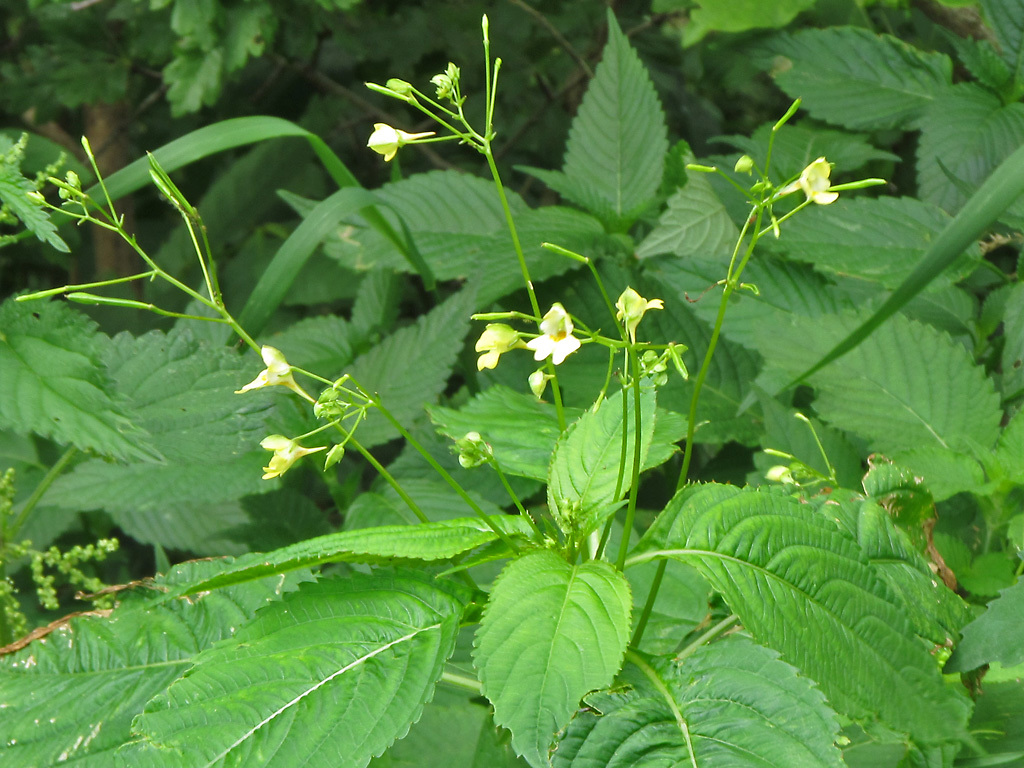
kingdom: Plantae
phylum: Tracheophyta
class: Magnoliopsida
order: Ericales
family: Balsaminaceae
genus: Impatiens
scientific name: Impatiens parviflora
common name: Small balsam
